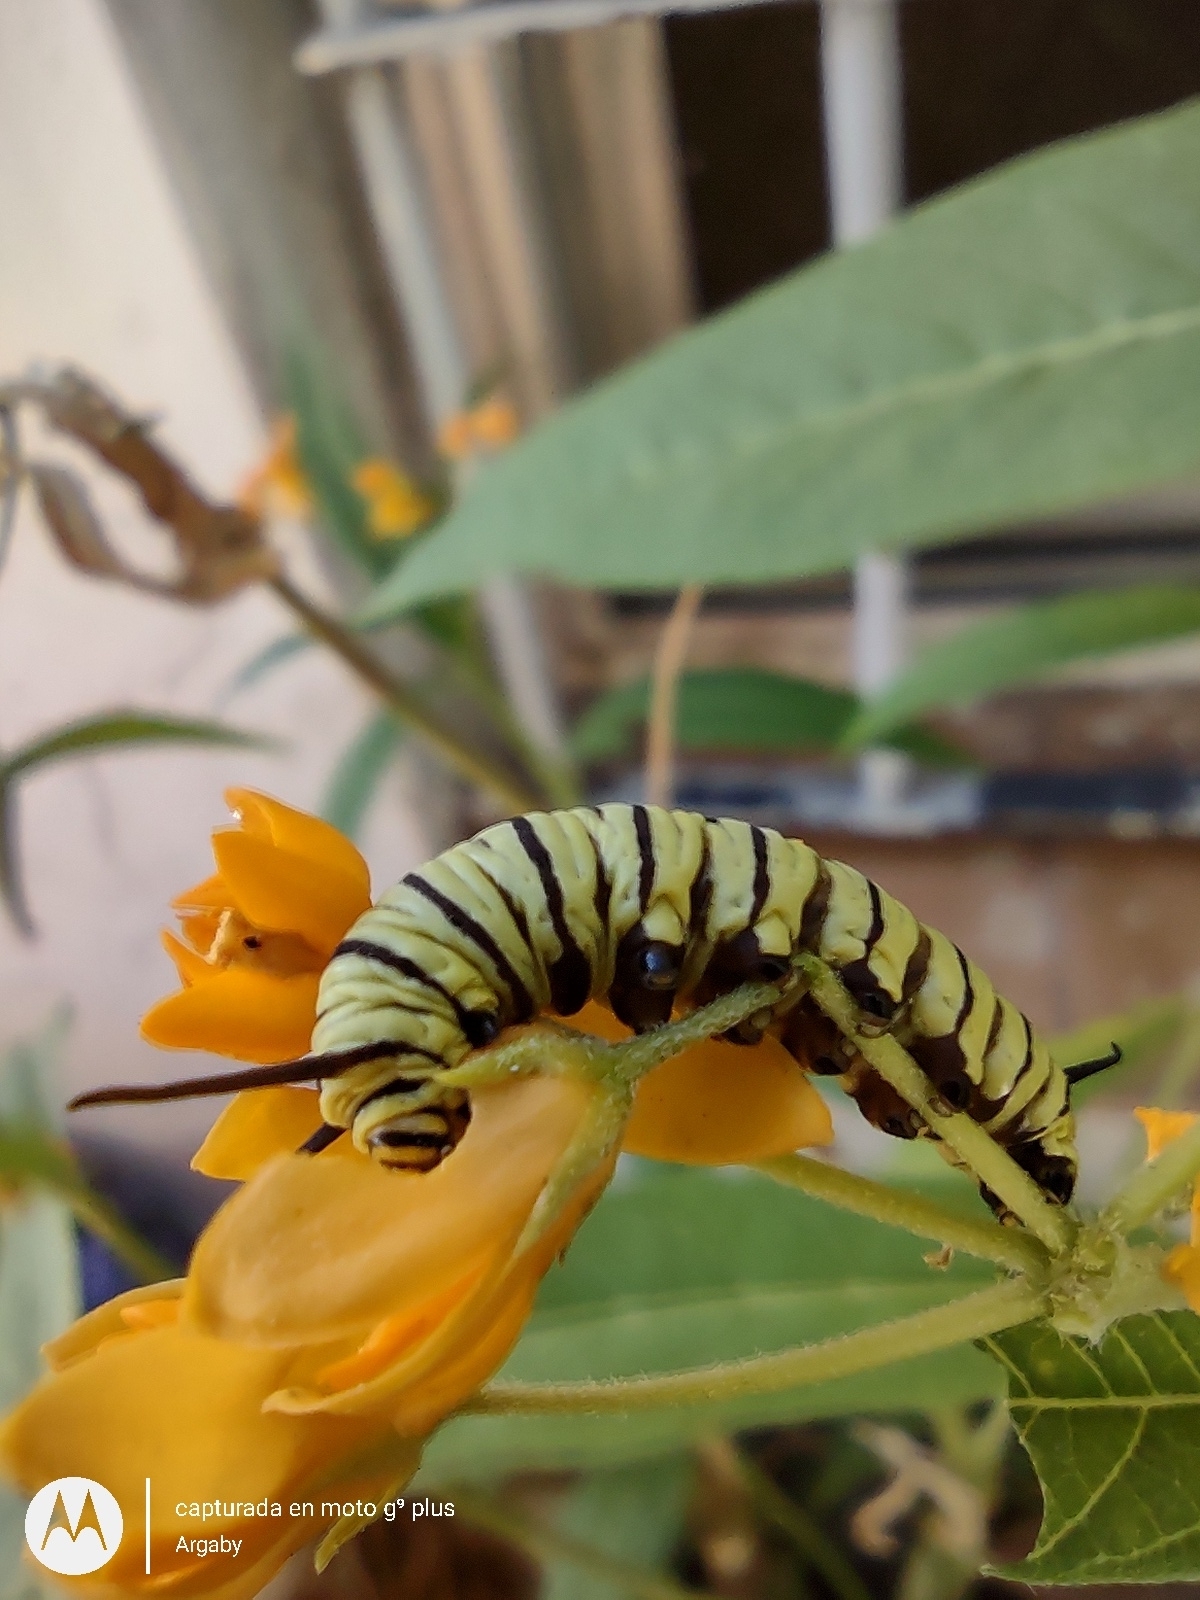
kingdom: Animalia
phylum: Arthropoda
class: Insecta
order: Lepidoptera
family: Nymphalidae
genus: Danaus
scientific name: Danaus erippus
